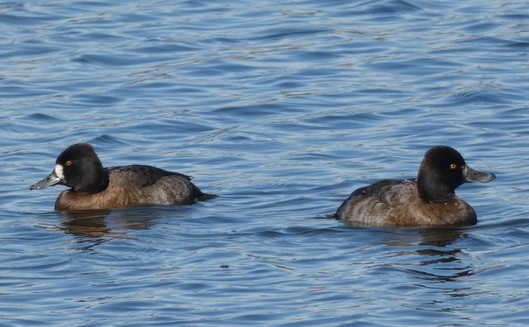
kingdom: Animalia
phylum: Chordata
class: Aves
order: Anseriformes
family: Anatidae
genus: Aythya
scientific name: Aythya affinis
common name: Lesser scaup
